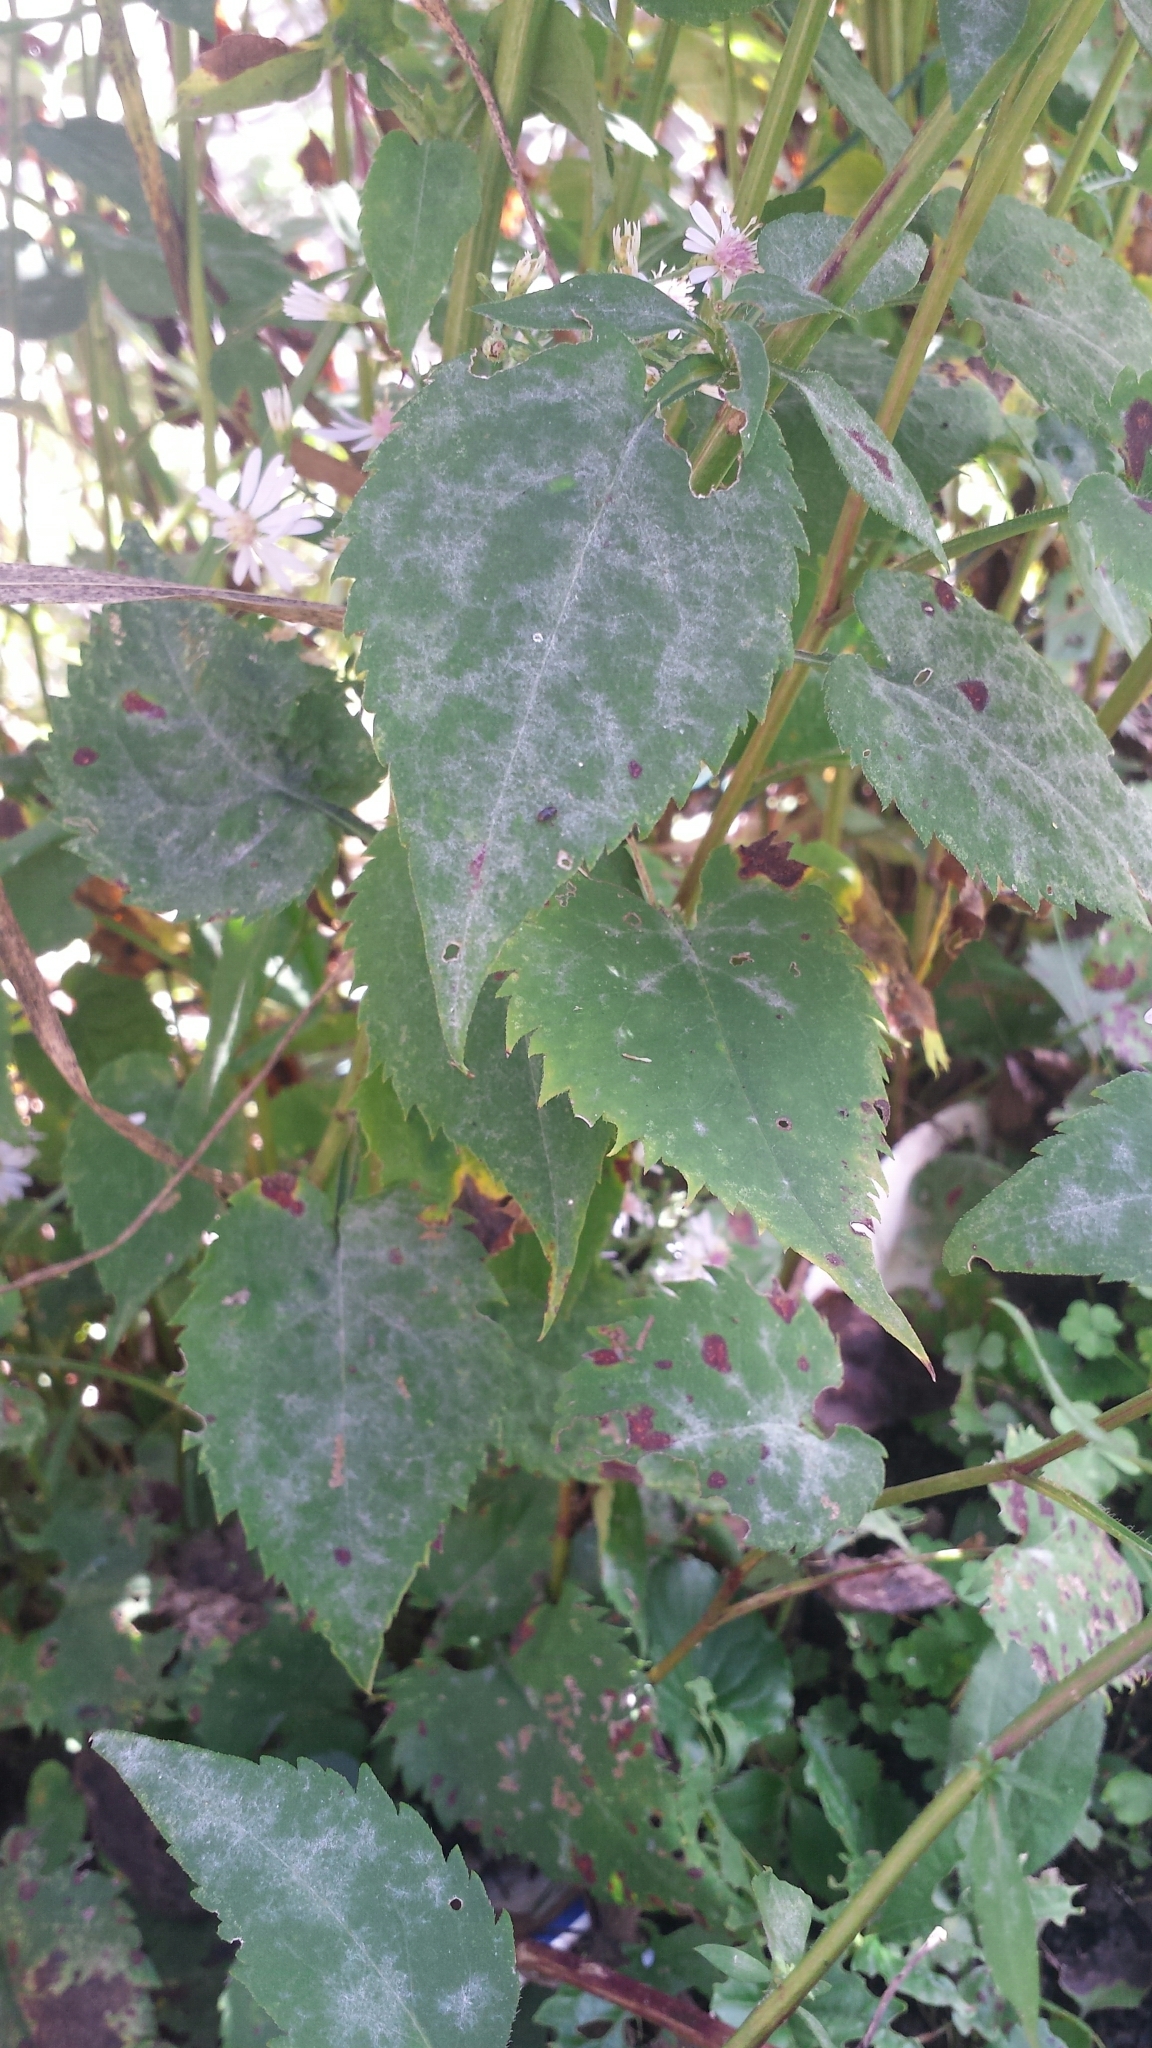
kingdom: Plantae
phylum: Tracheophyta
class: Magnoliopsida
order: Asterales
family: Asteraceae
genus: Symphyotrichum
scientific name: Symphyotrichum cordifolium
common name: Beeweed
